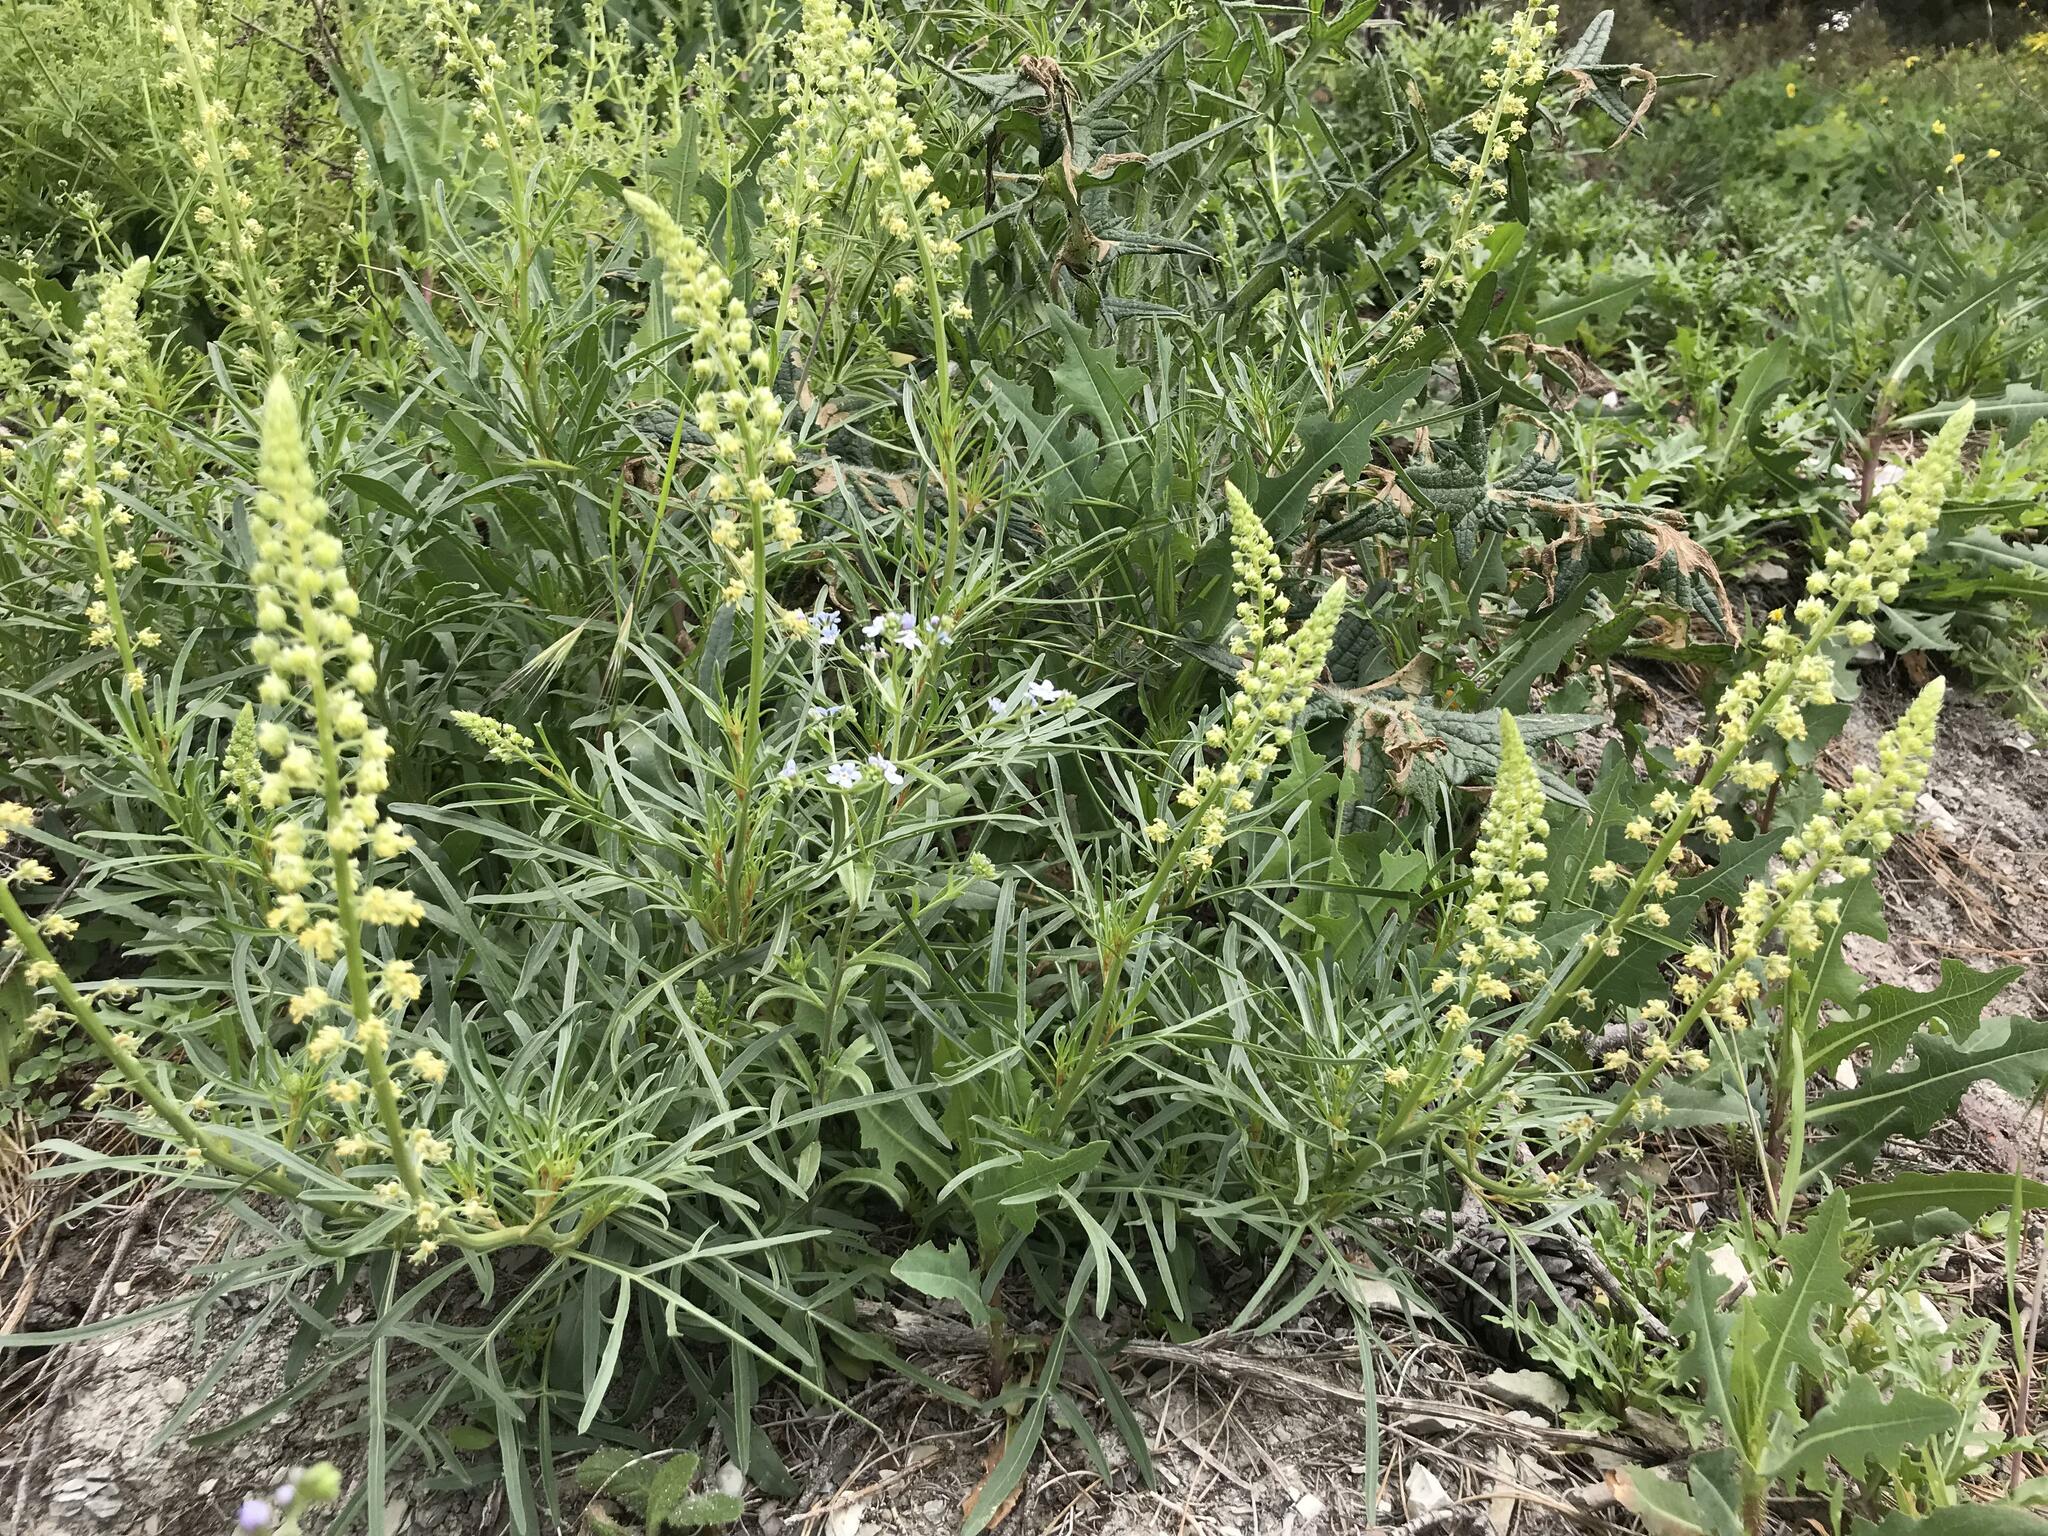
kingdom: Plantae
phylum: Tracheophyta
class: Magnoliopsida
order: Brassicales
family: Resedaceae
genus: Reseda
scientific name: Reseda lutea
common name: Wild mignonette
